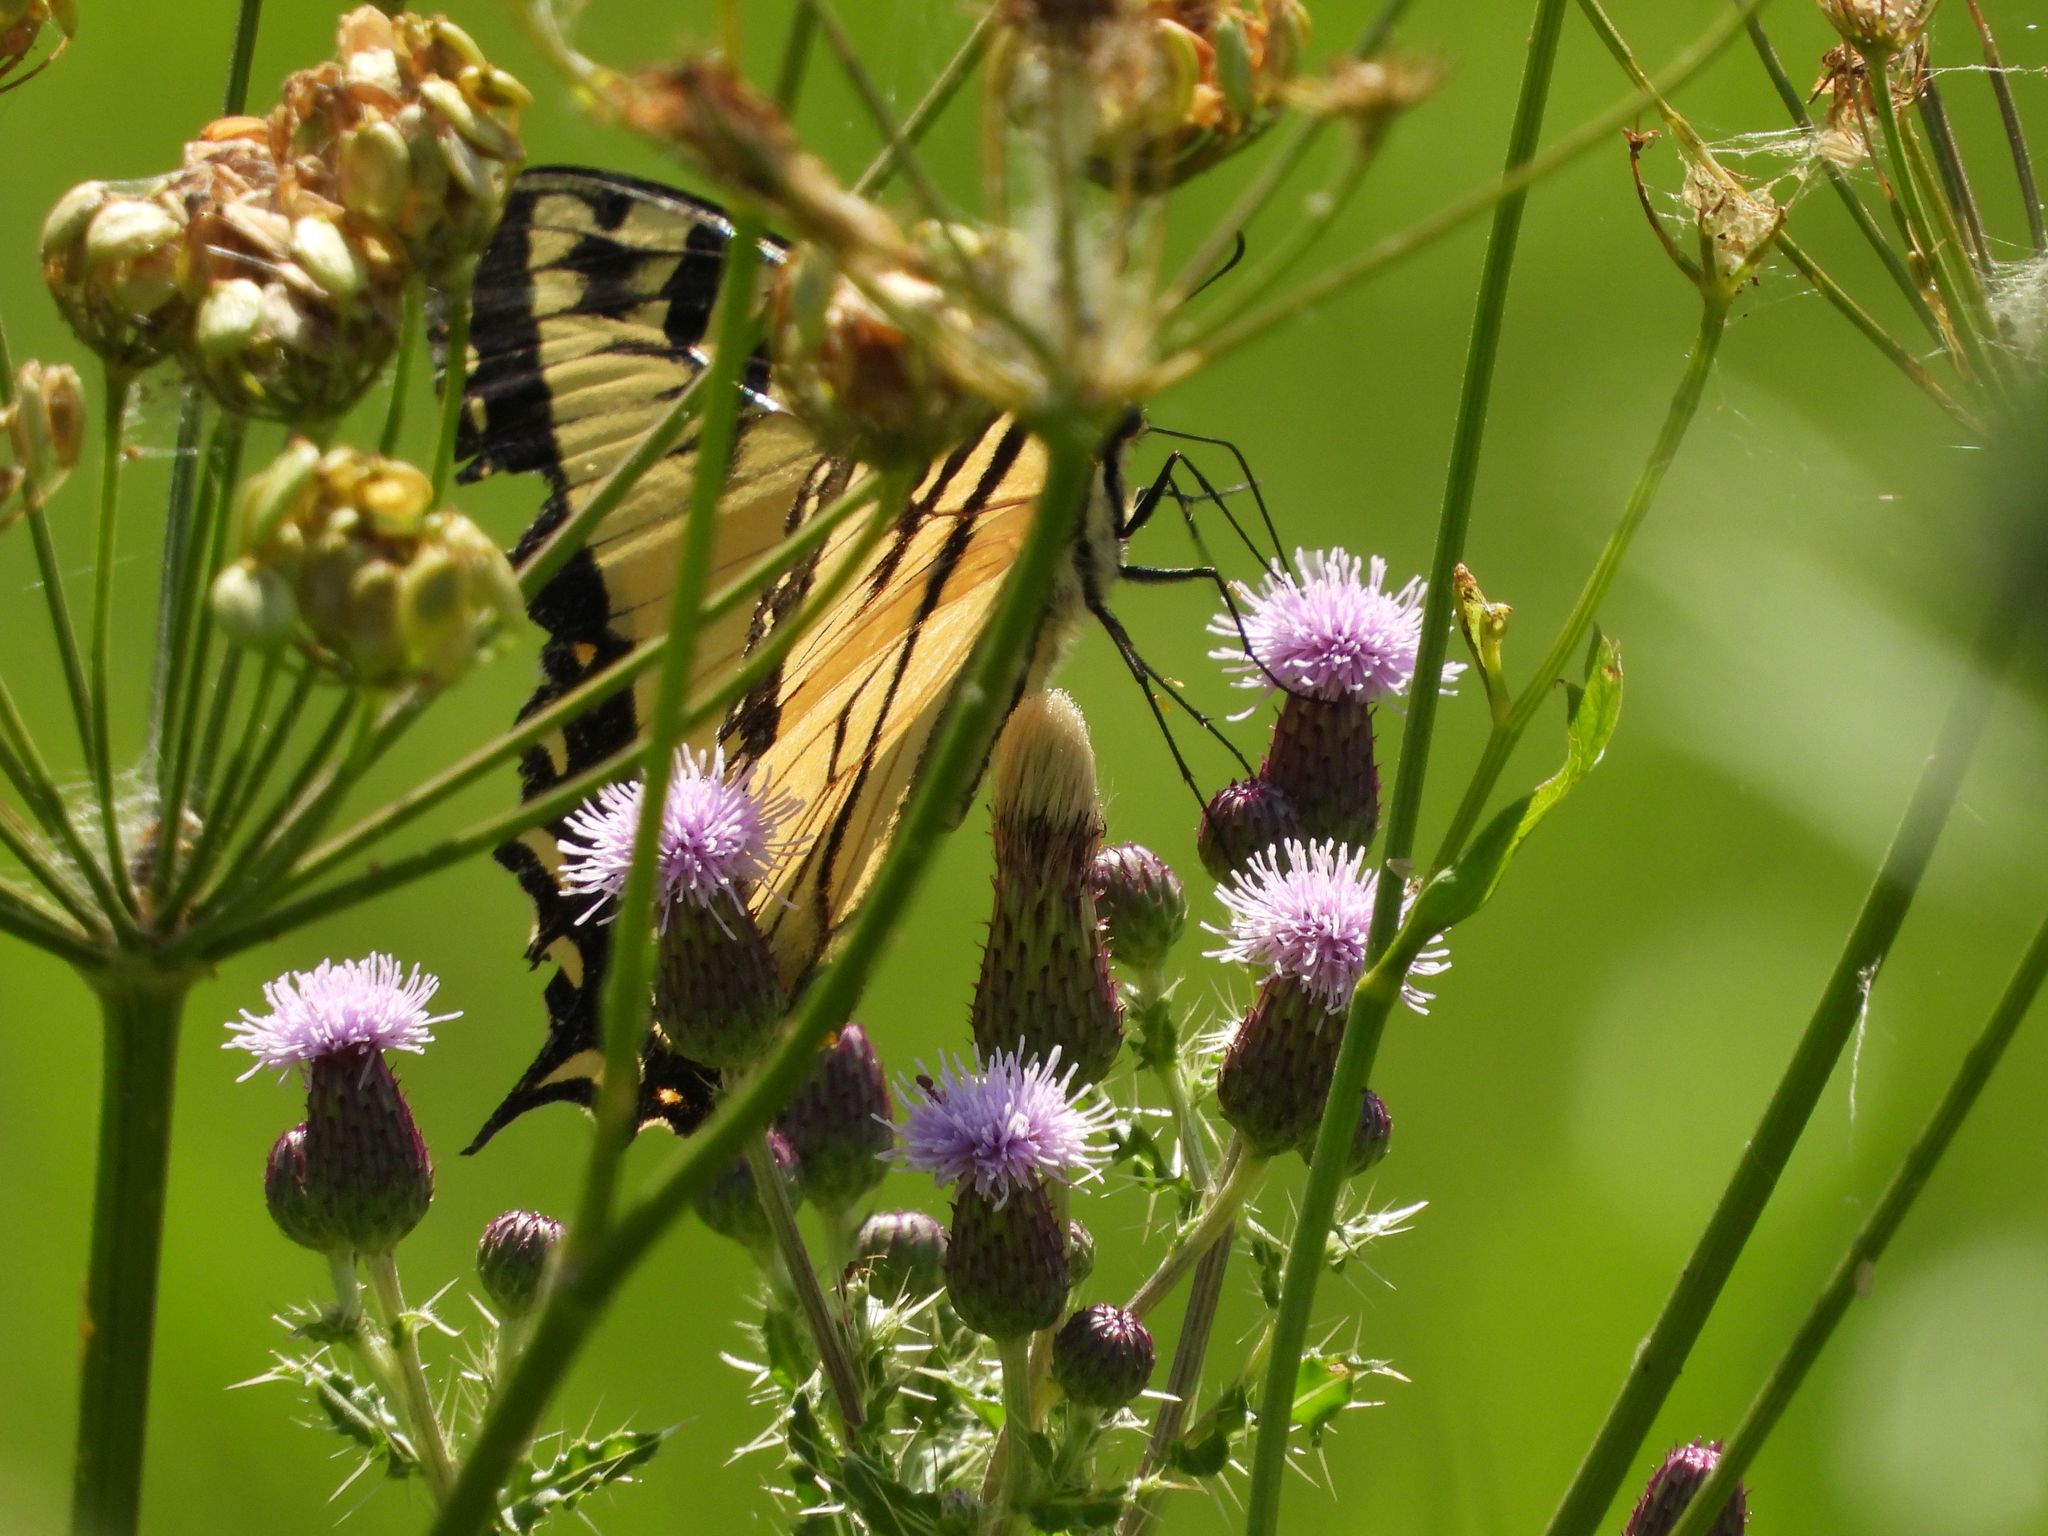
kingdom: Animalia
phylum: Arthropoda
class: Insecta
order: Lepidoptera
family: Papilionidae
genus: Papilio
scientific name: Papilio
